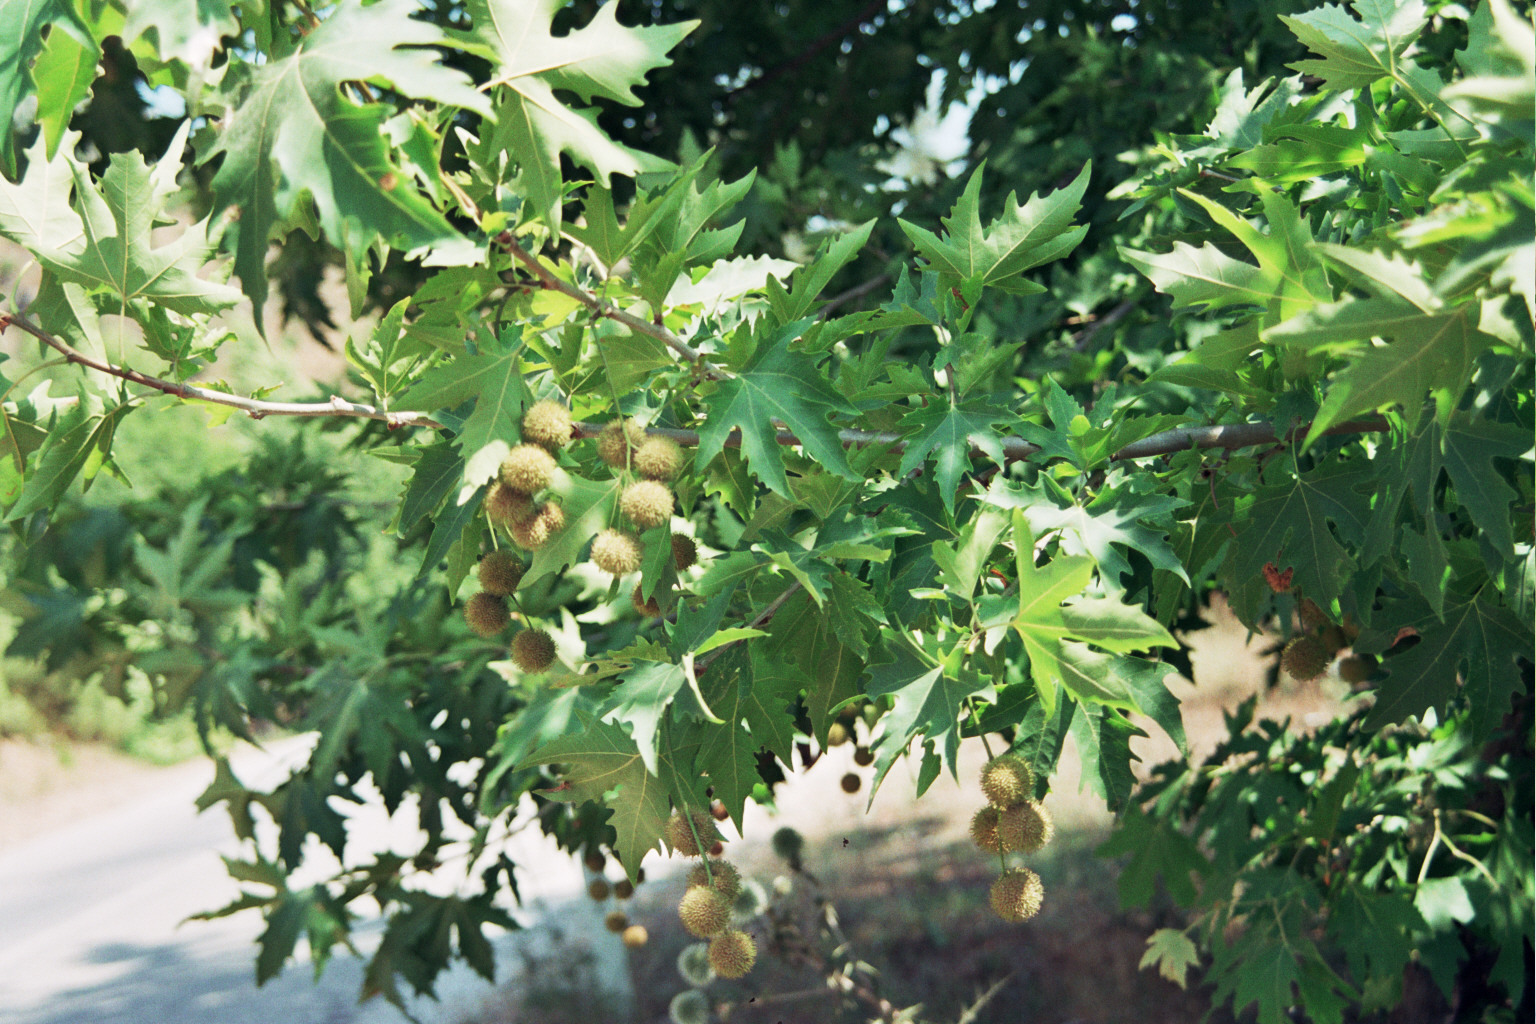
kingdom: Plantae
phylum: Tracheophyta
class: Magnoliopsida
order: Proteales
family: Platanaceae
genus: Platanus
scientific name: Platanus orientalis
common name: Oriental plane
